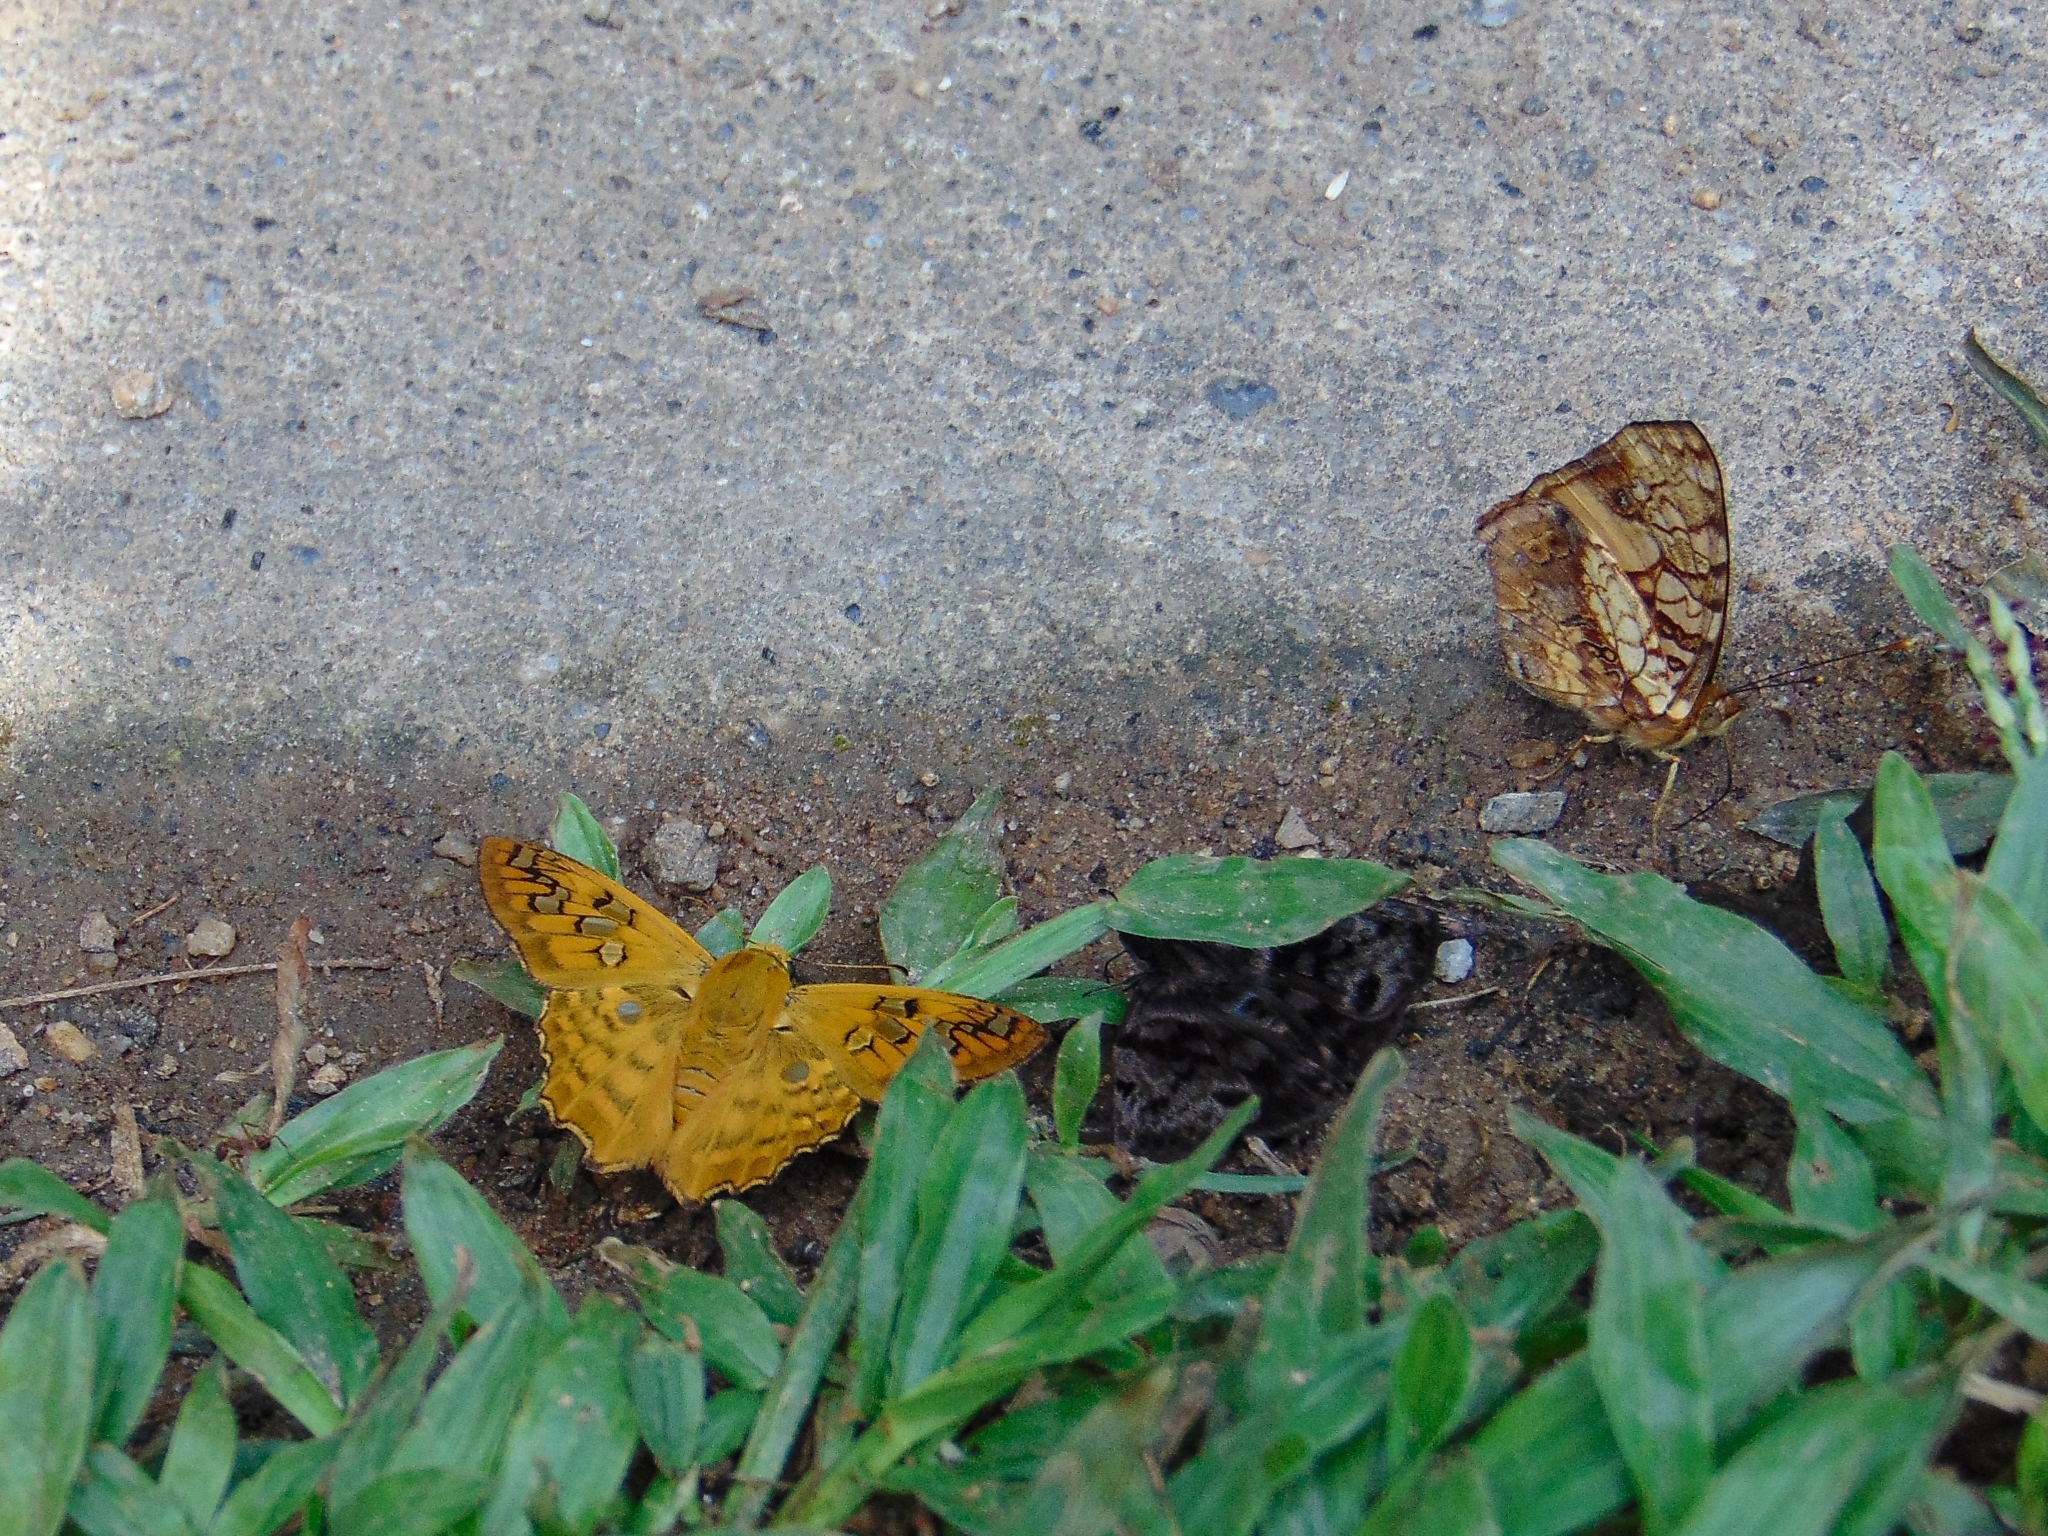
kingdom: Animalia
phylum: Arthropoda
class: Insecta
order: Lepidoptera
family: Hesperiidae
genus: Myscelus
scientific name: Myscelus amystis
